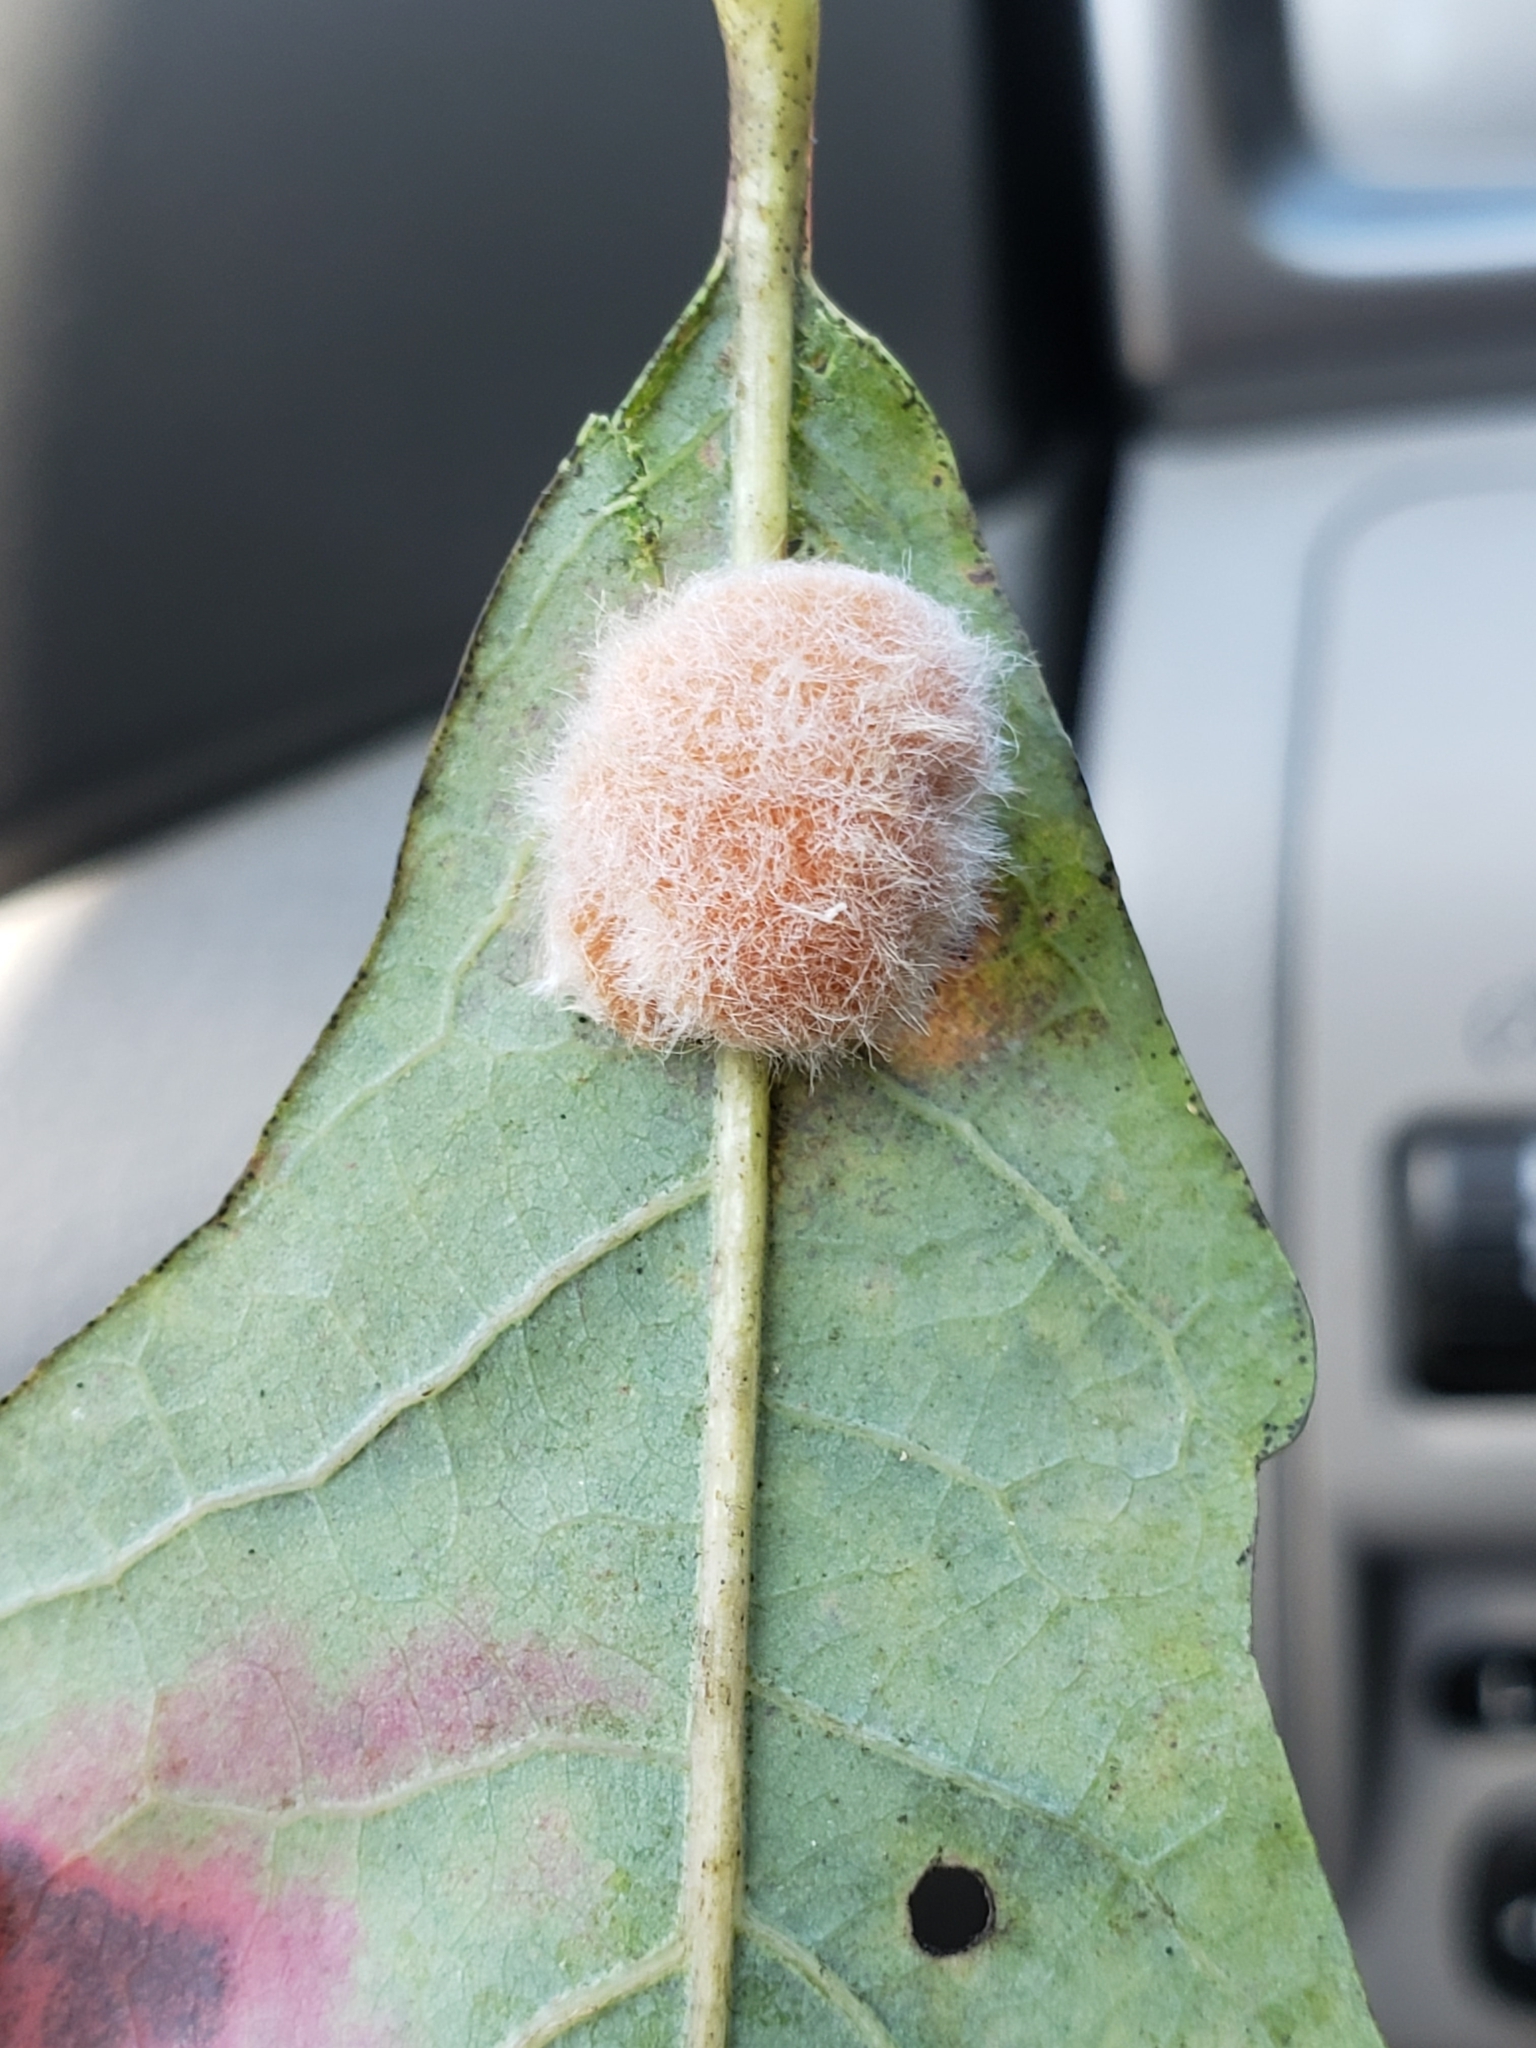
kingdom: Animalia
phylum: Arthropoda
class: Insecta
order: Hymenoptera
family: Cynipidae
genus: Andricus
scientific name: Andricus quercusflocci
